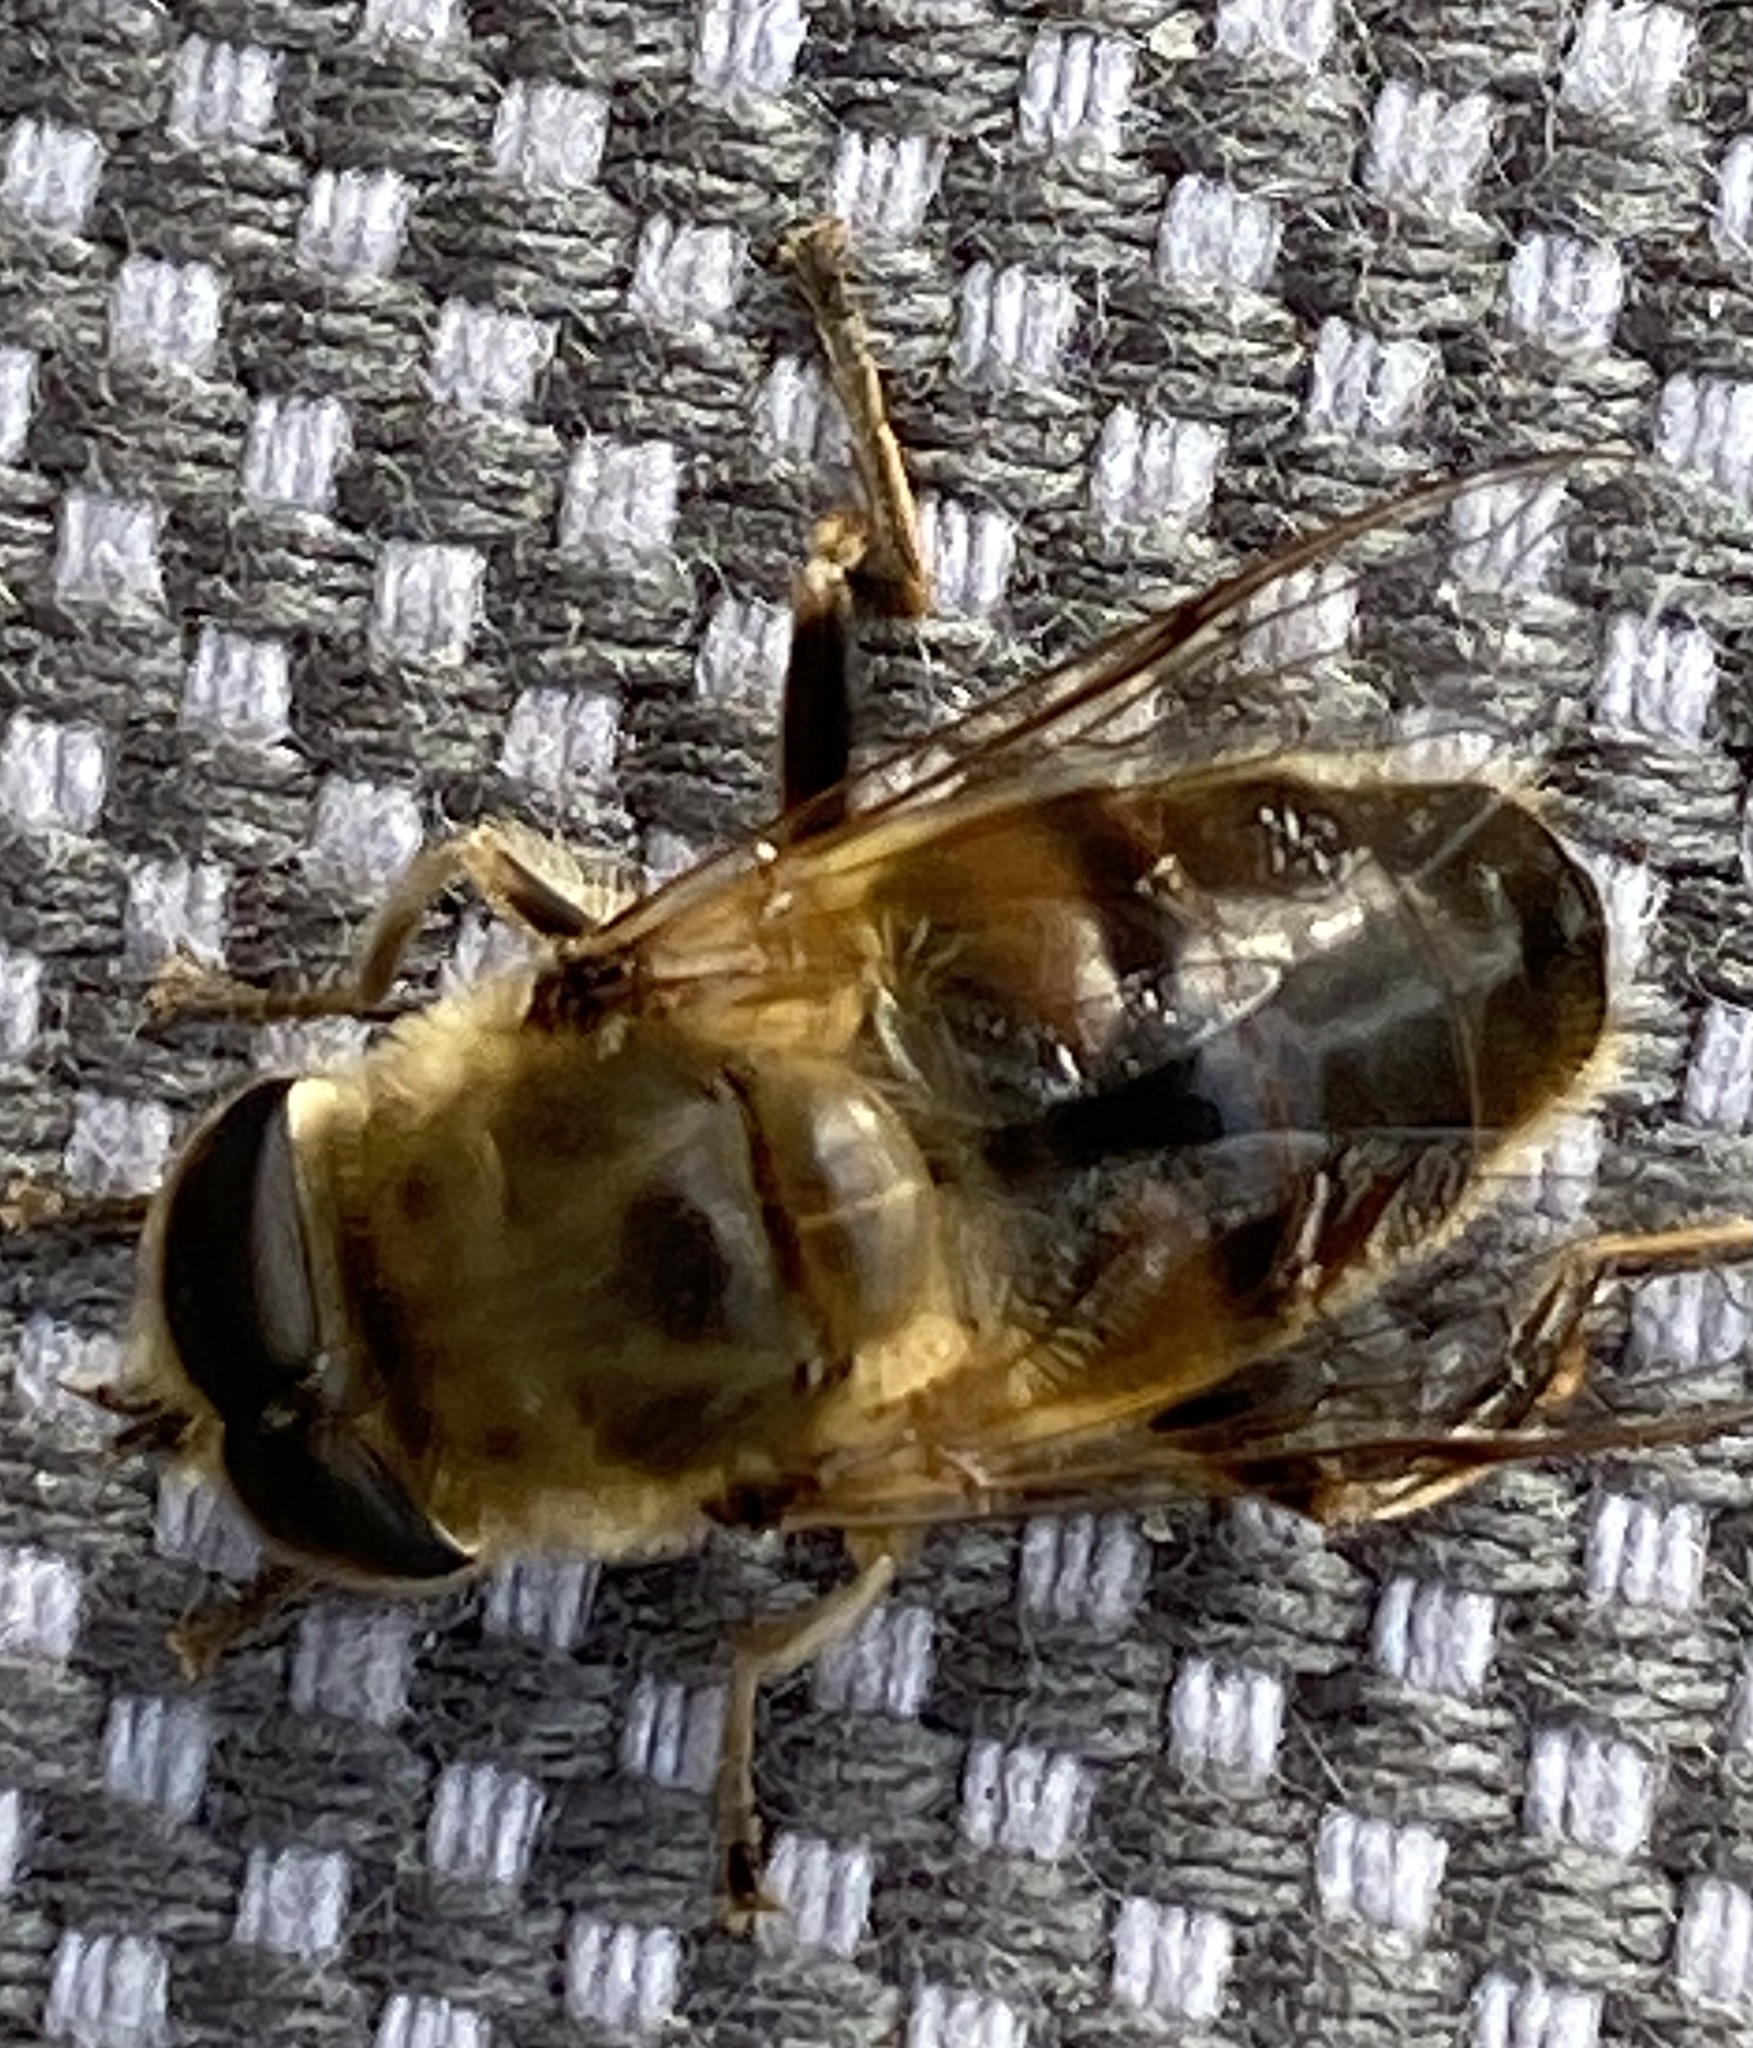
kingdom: Animalia
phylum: Arthropoda
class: Insecta
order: Diptera
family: Syrphidae
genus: Eristalis
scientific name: Eristalis tenax
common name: Drone fly
